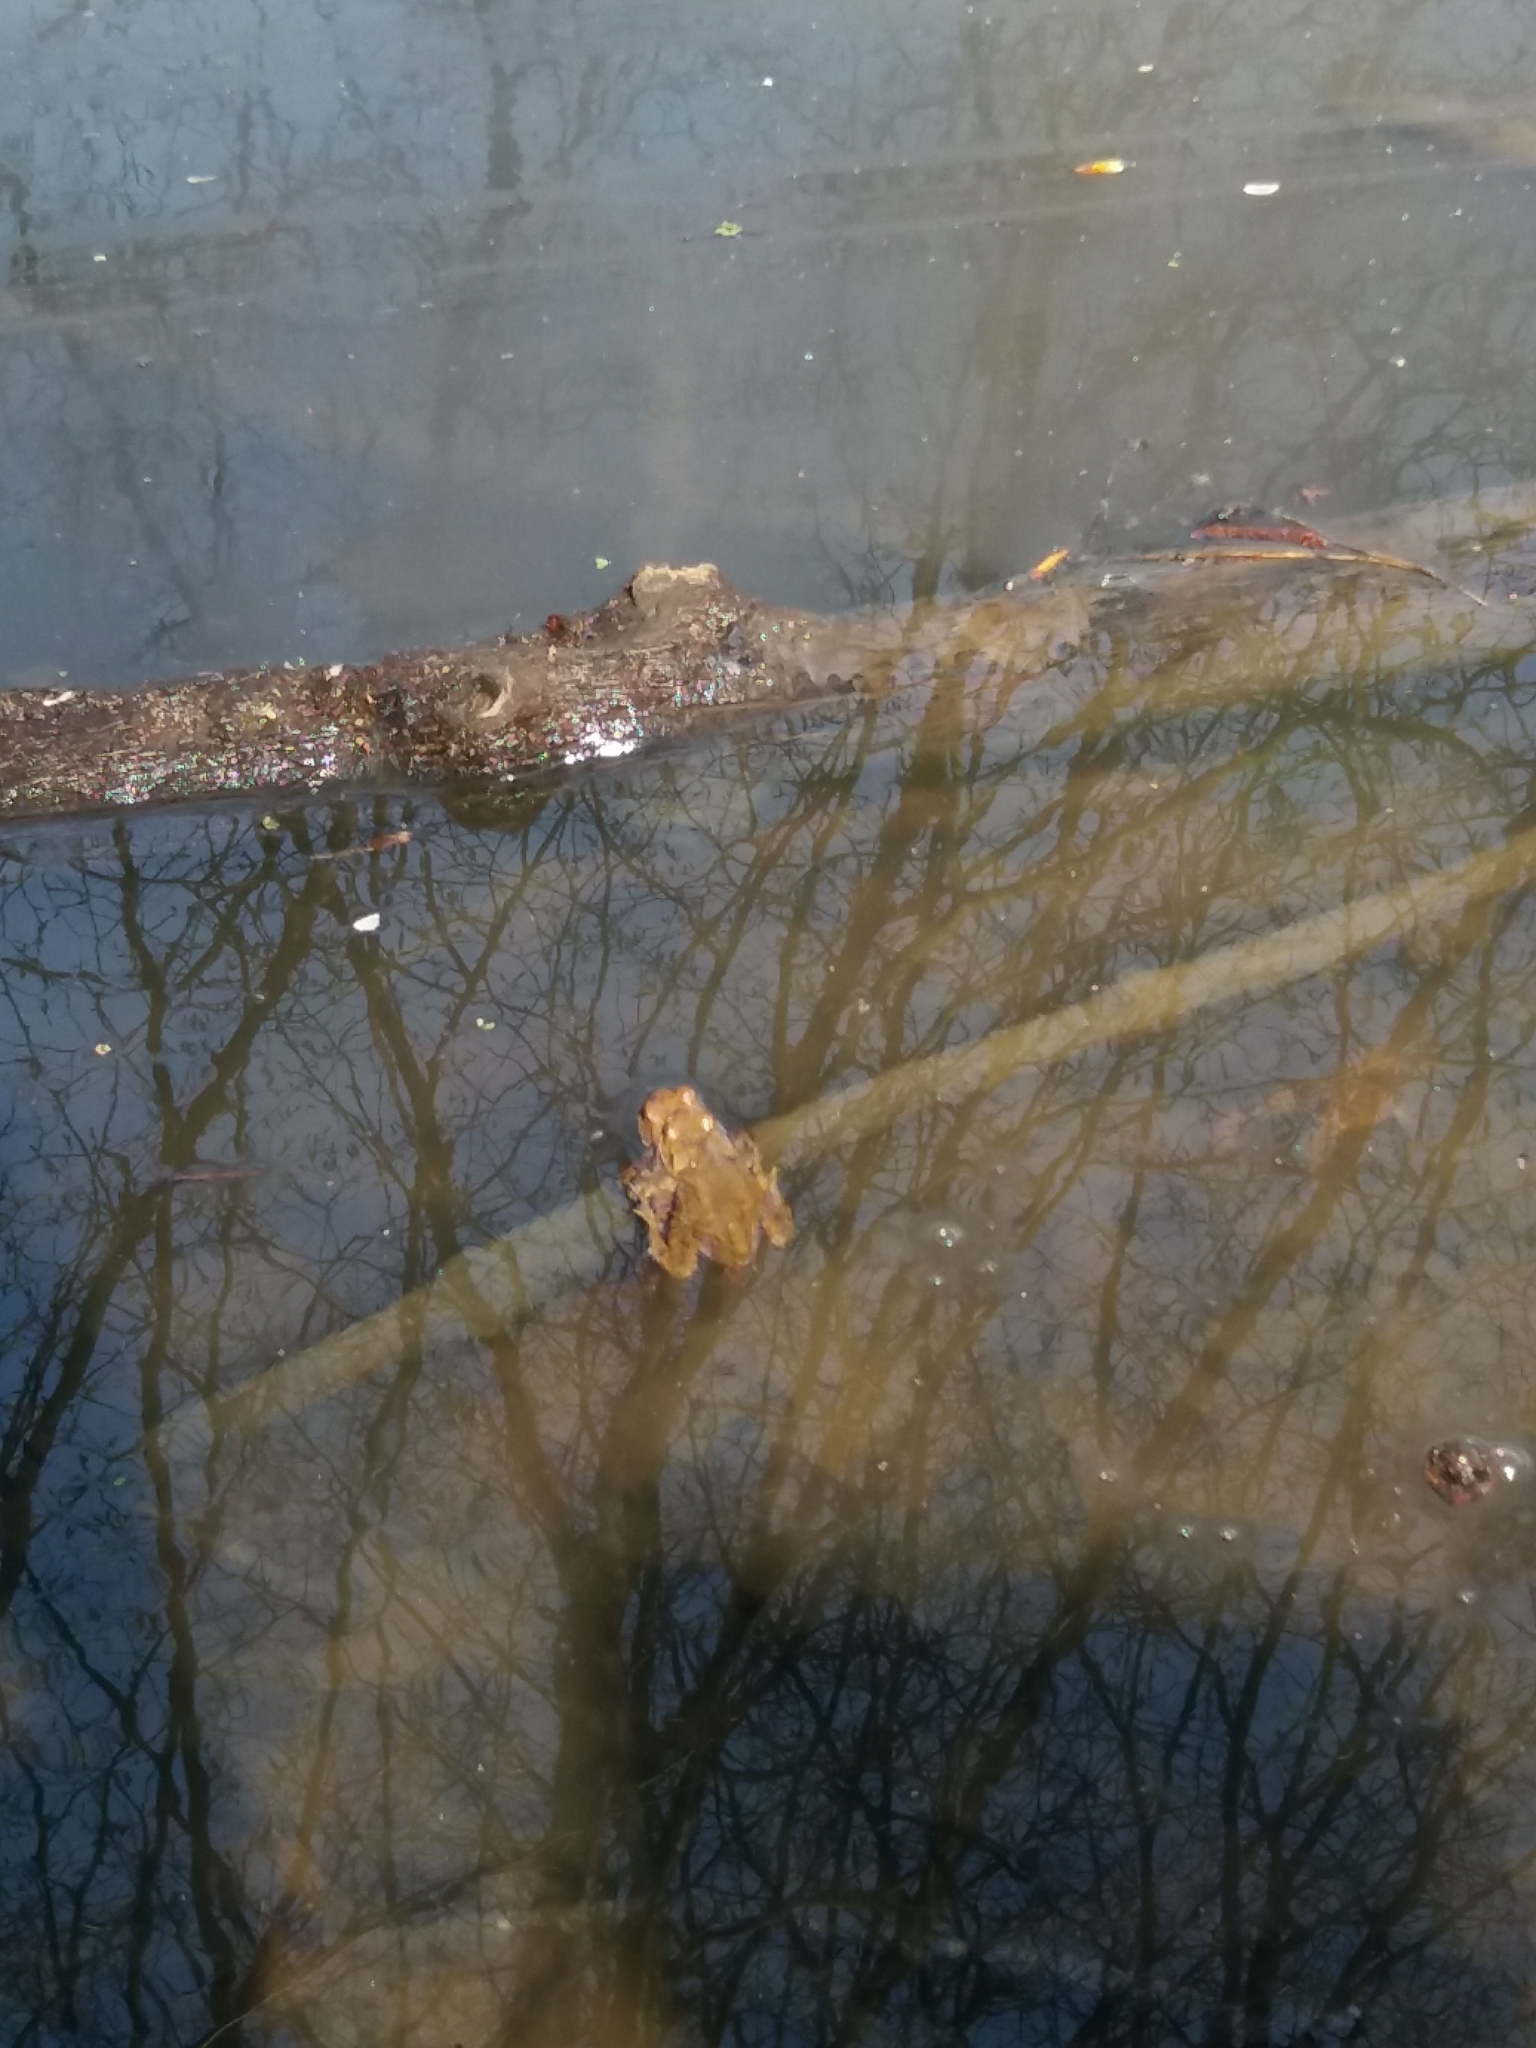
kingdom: Animalia
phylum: Chordata
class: Amphibia
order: Anura
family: Bufonidae
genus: Bufo
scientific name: Bufo bufo
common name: Common toad
